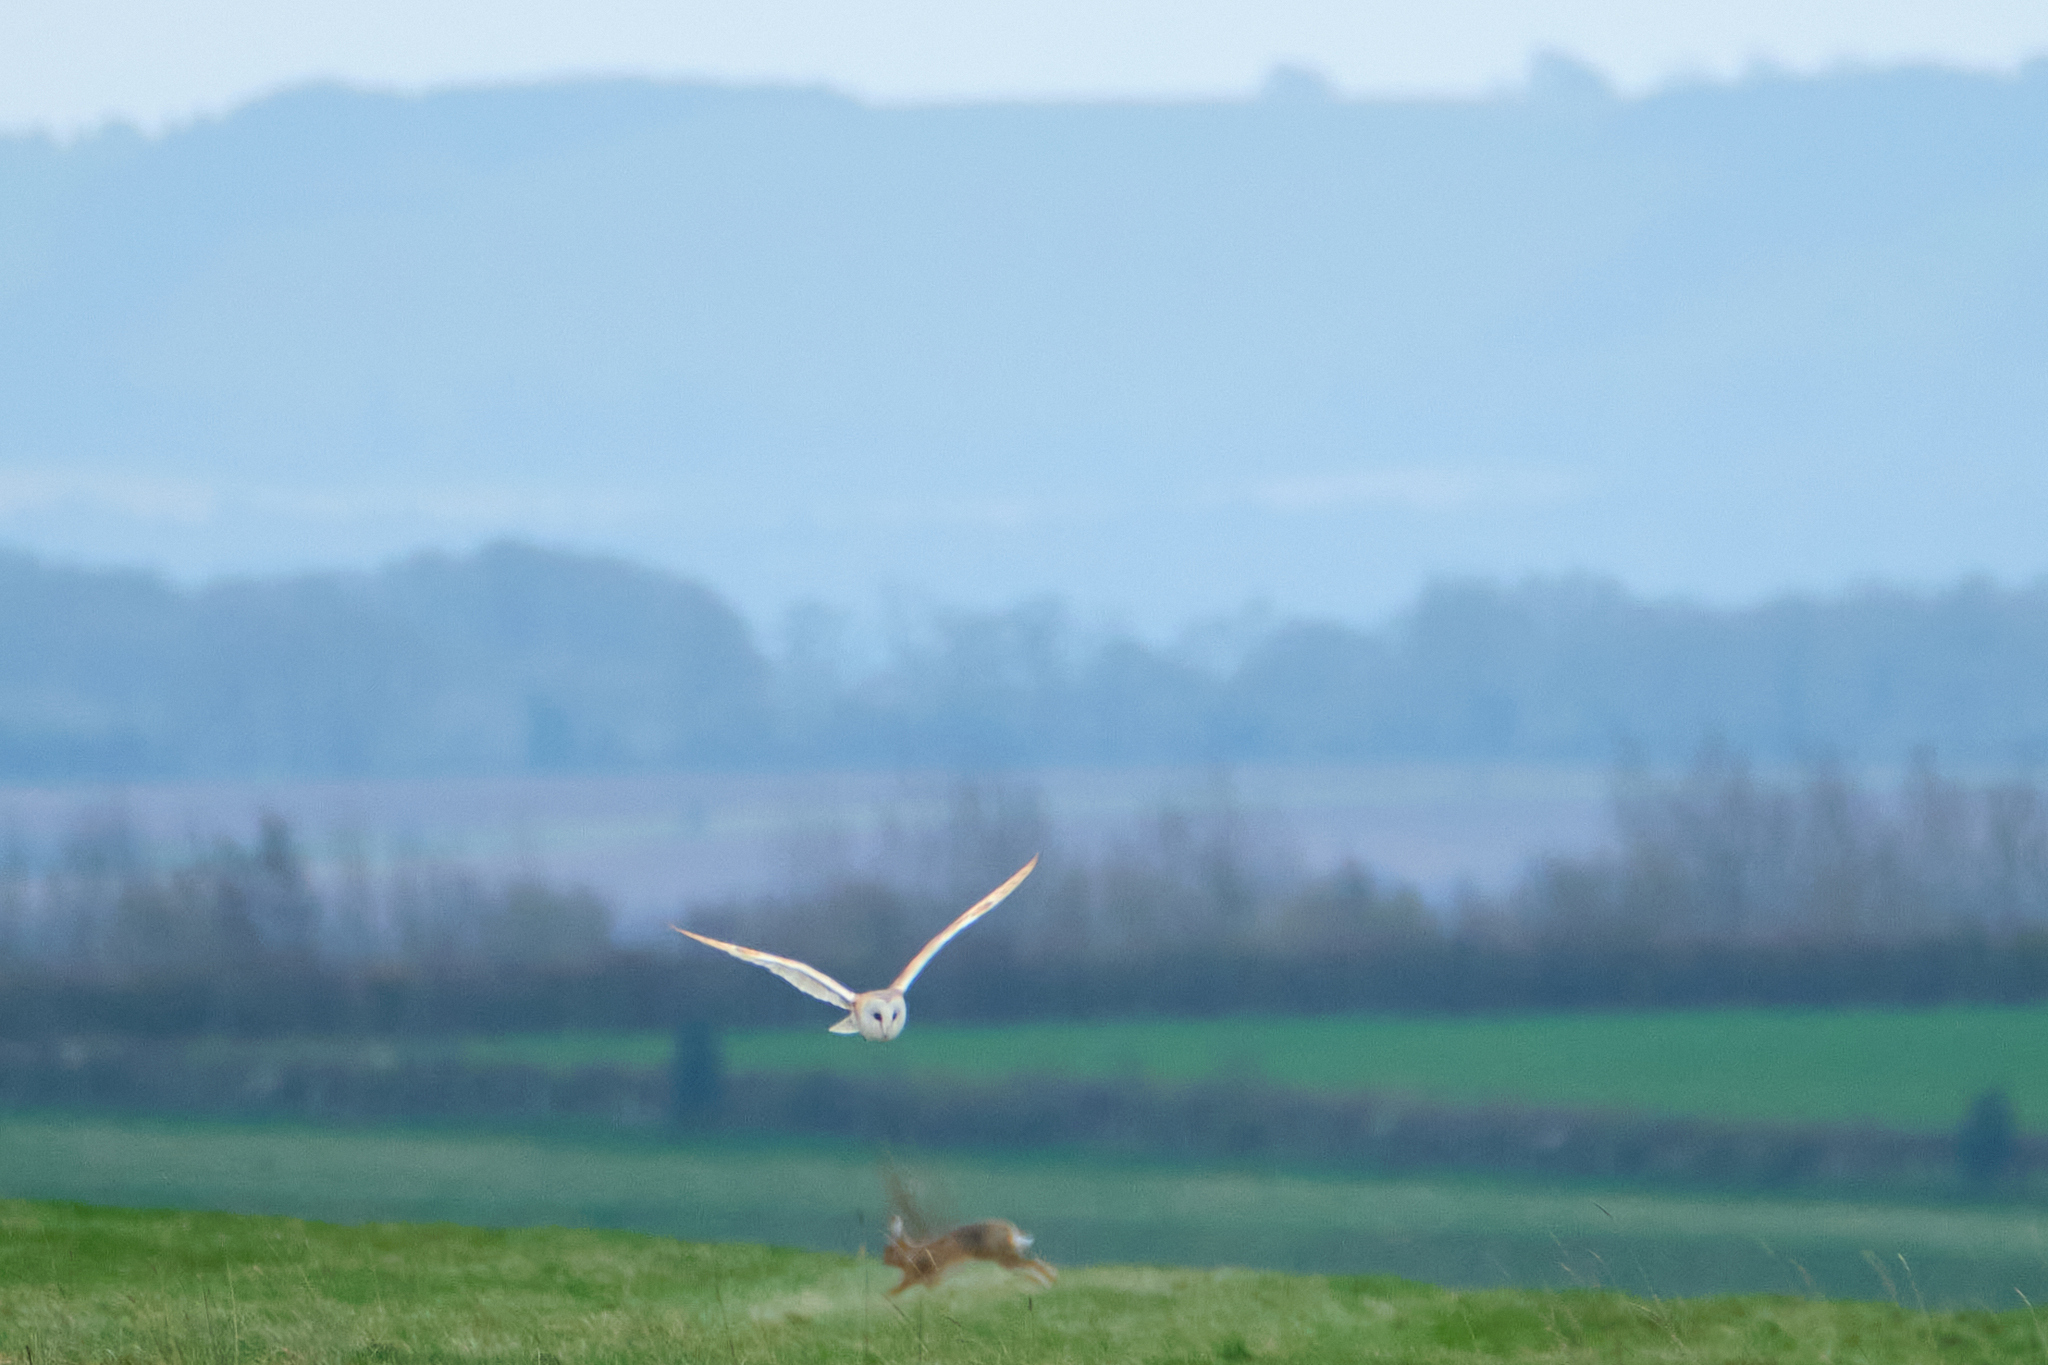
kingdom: Animalia
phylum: Chordata
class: Aves
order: Strigiformes
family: Tytonidae
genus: Tyto
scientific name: Tyto alba
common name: Barn owl
